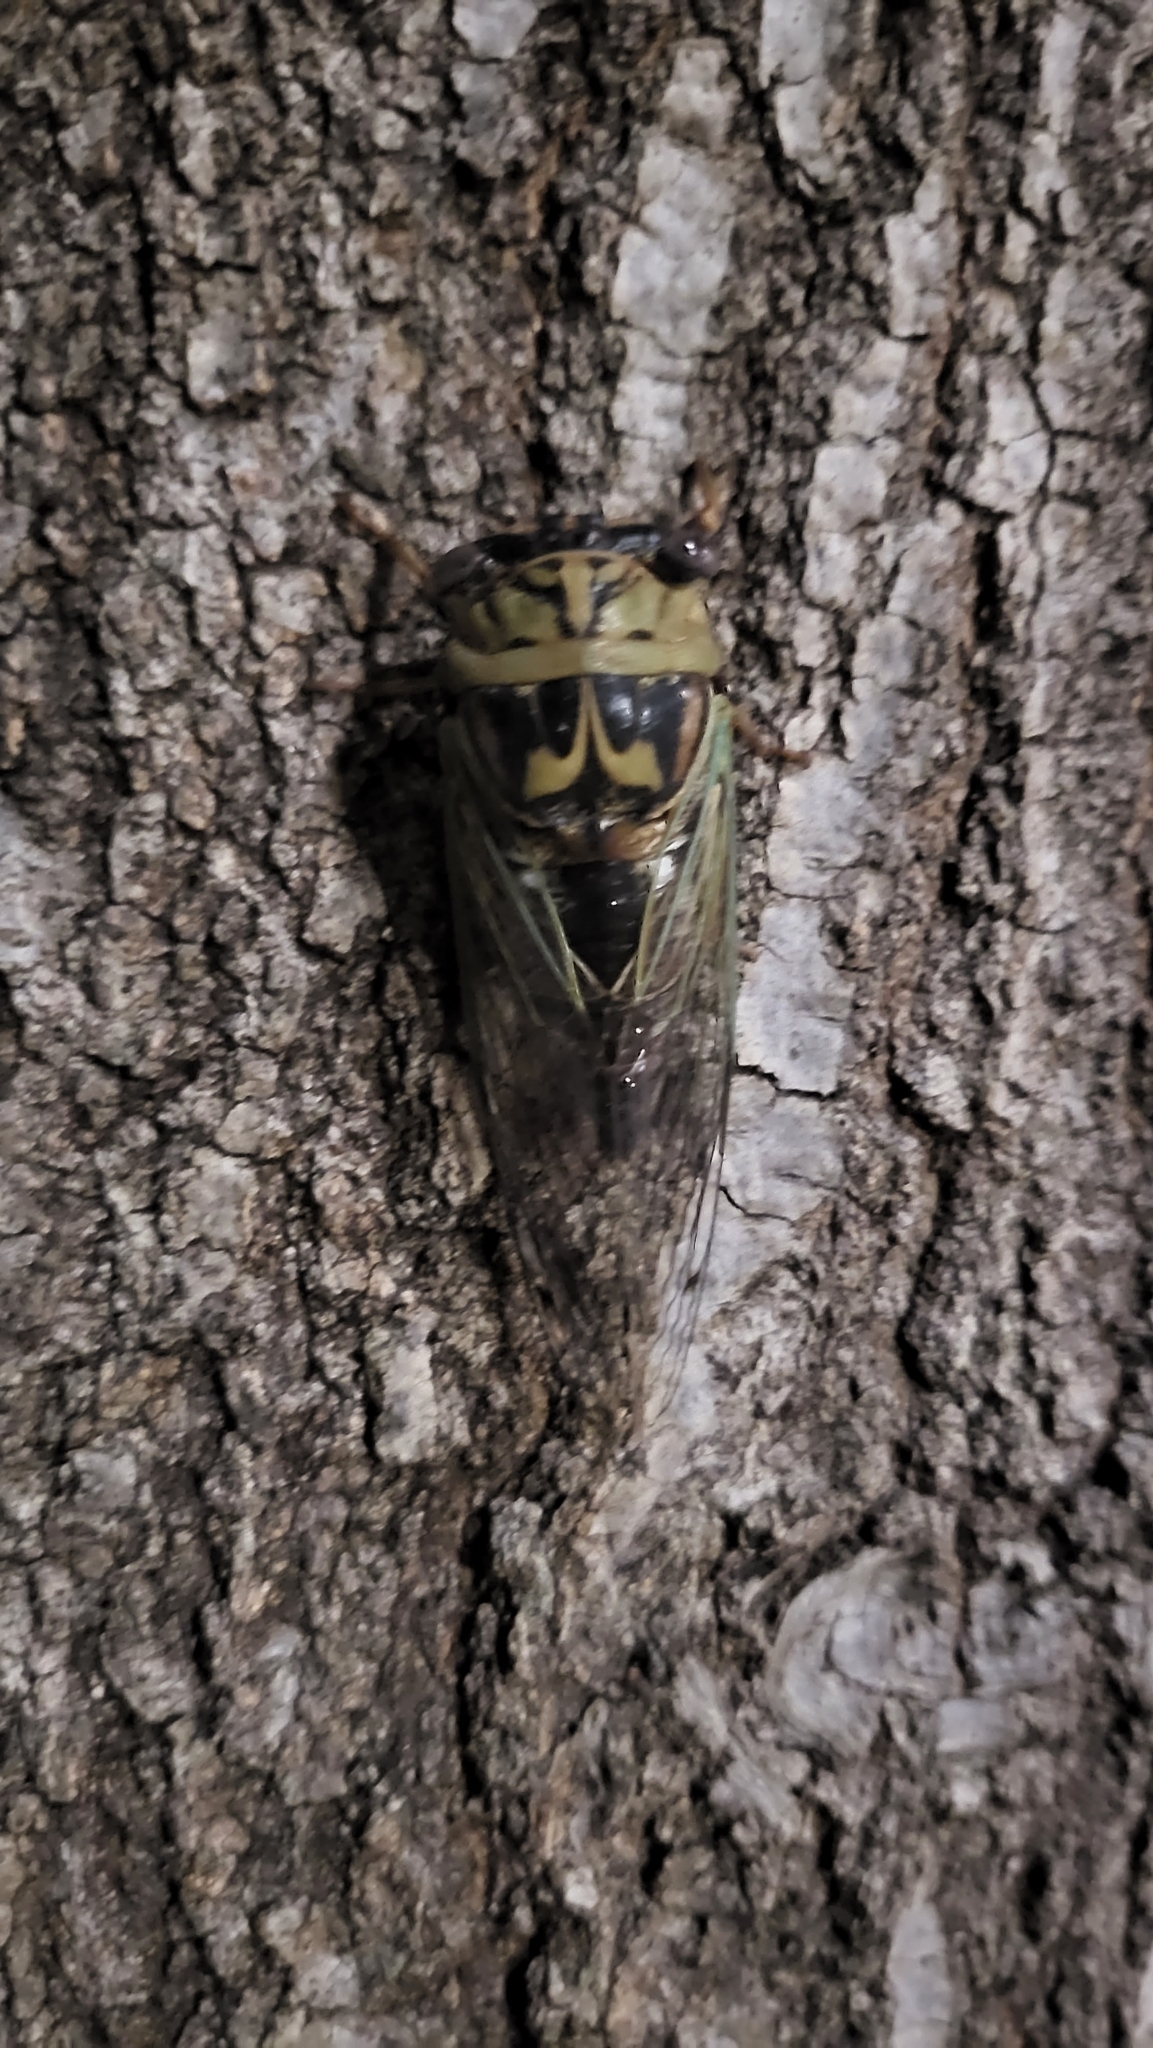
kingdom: Animalia
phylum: Arthropoda
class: Insecta
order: Hemiptera
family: Cicadidae
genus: Megatibicen
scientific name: Megatibicen resh
